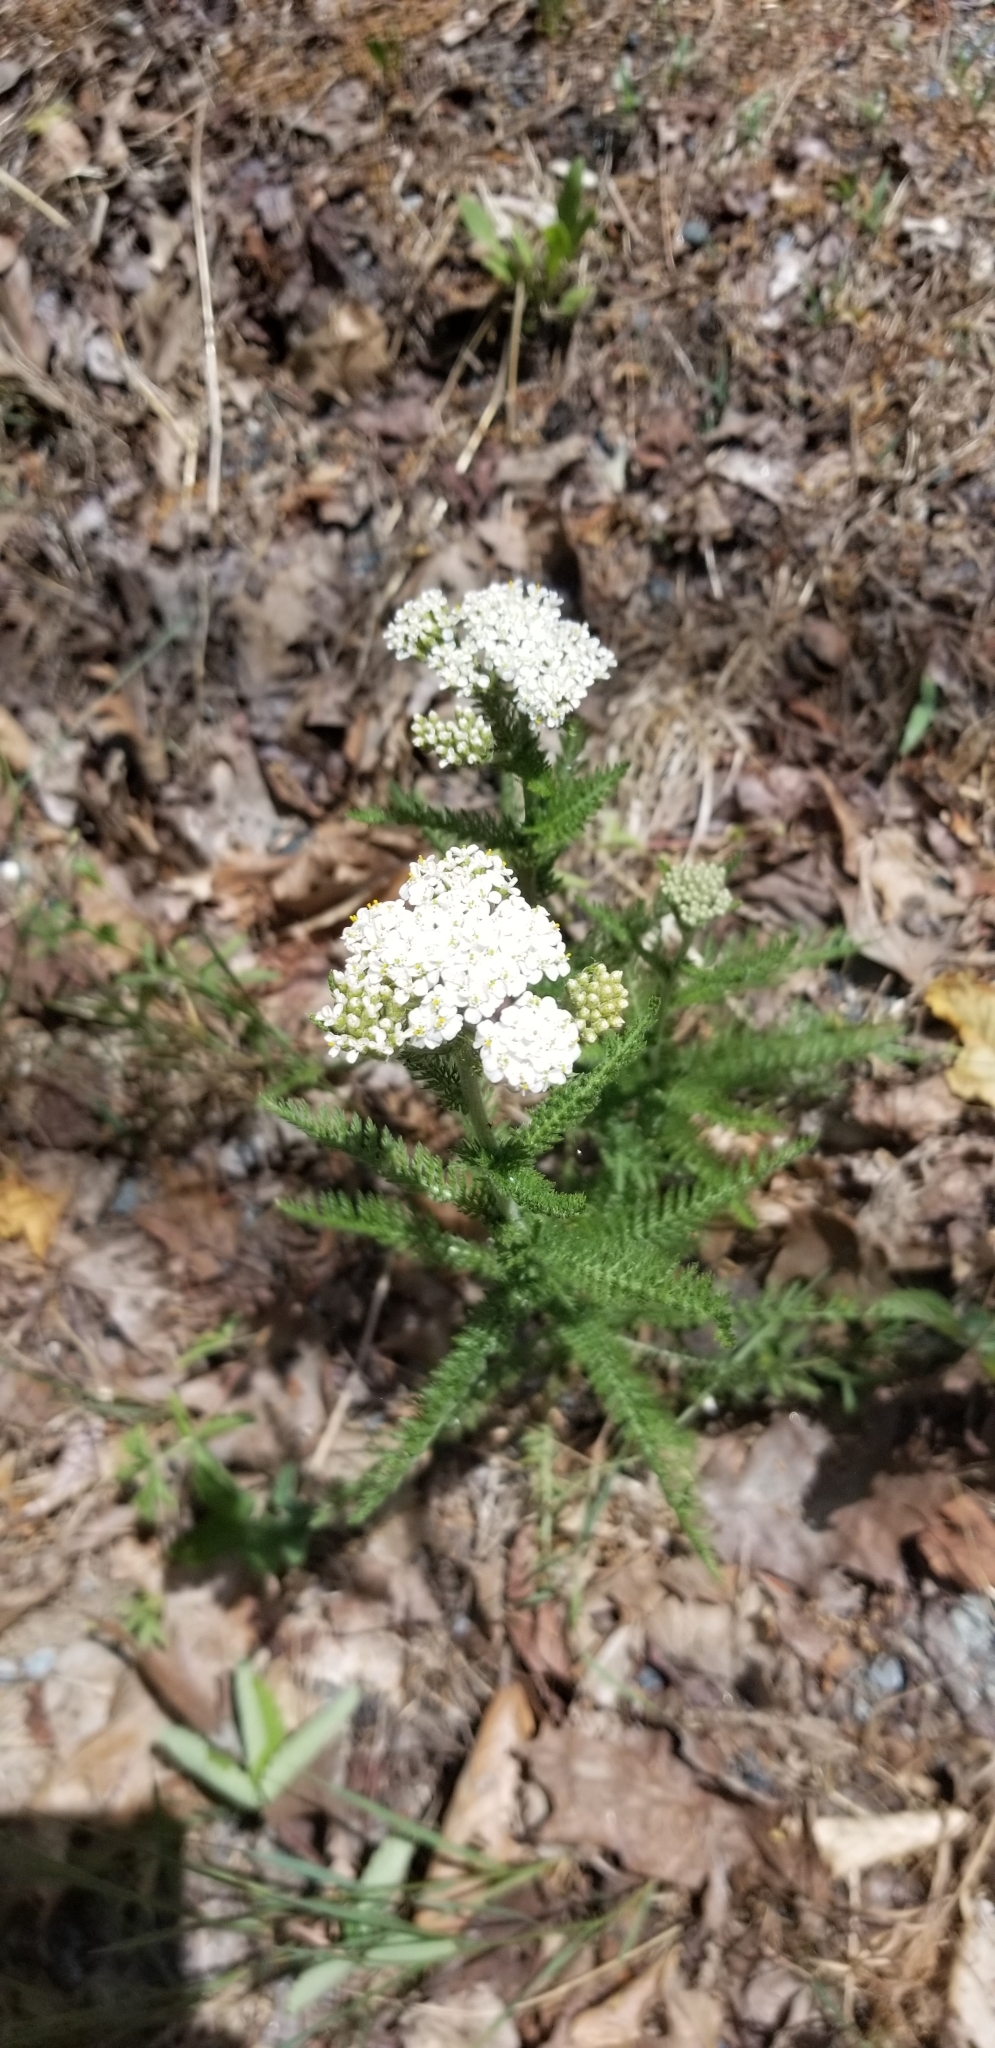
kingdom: Plantae
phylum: Tracheophyta
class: Magnoliopsida
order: Asterales
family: Asteraceae
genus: Achillea
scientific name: Achillea millefolium
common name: Yarrow
